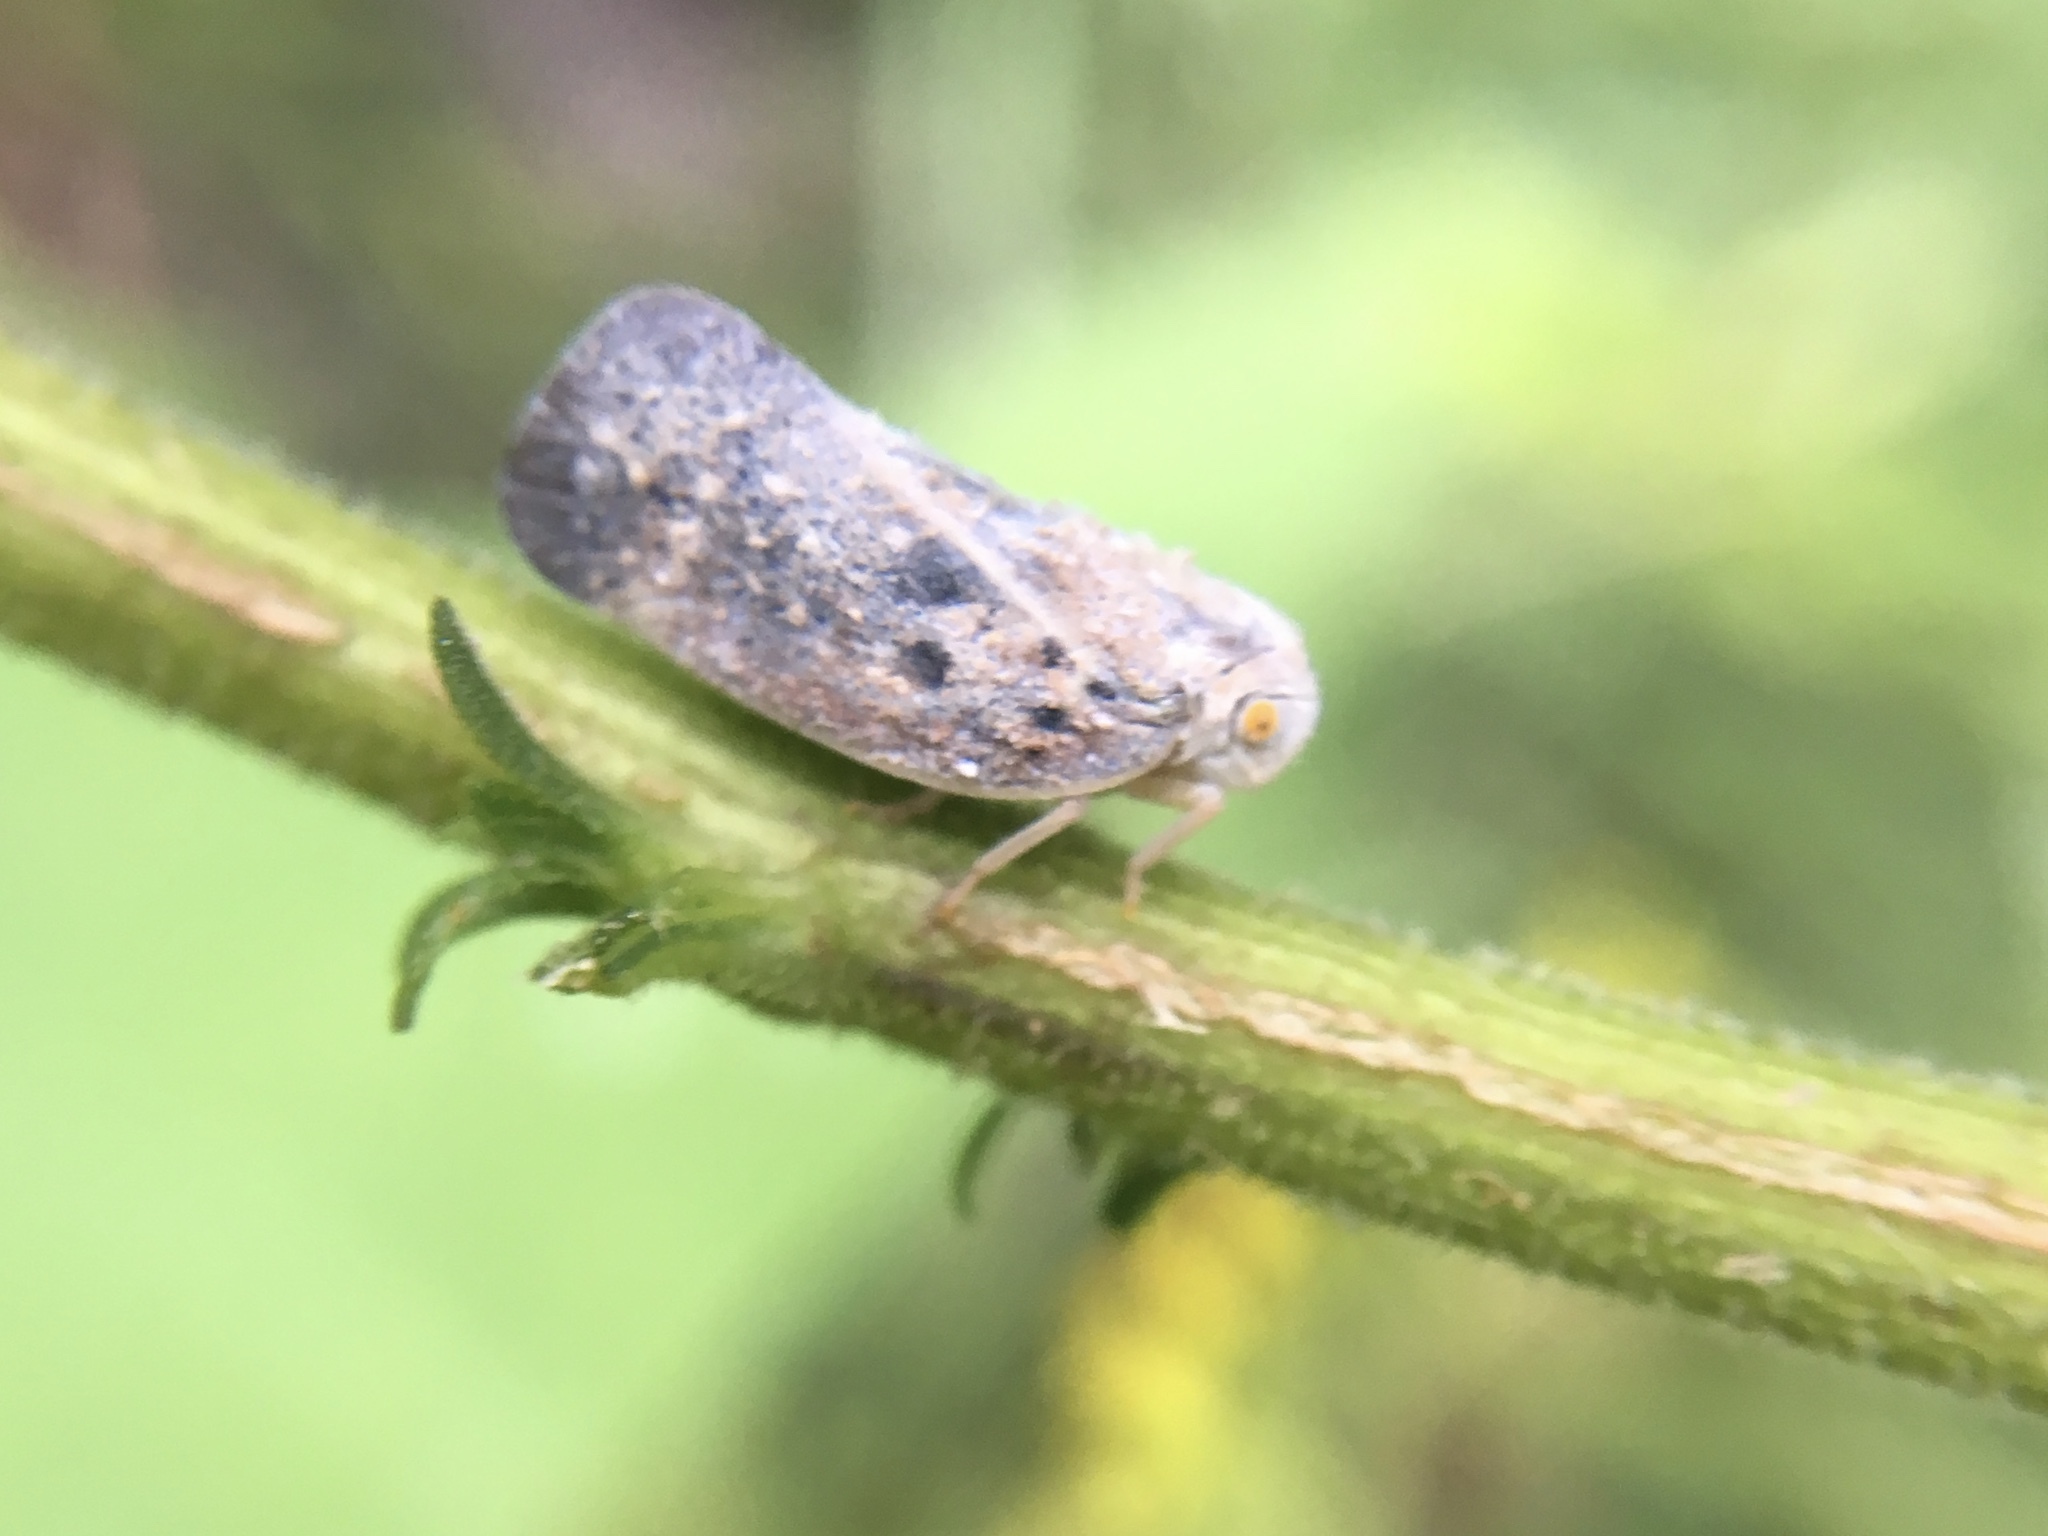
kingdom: Animalia
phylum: Arthropoda
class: Insecta
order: Hemiptera
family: Flatidae
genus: Metcalfa
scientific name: Metcalfa pruinosa
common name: Citrus flatid planthopper
